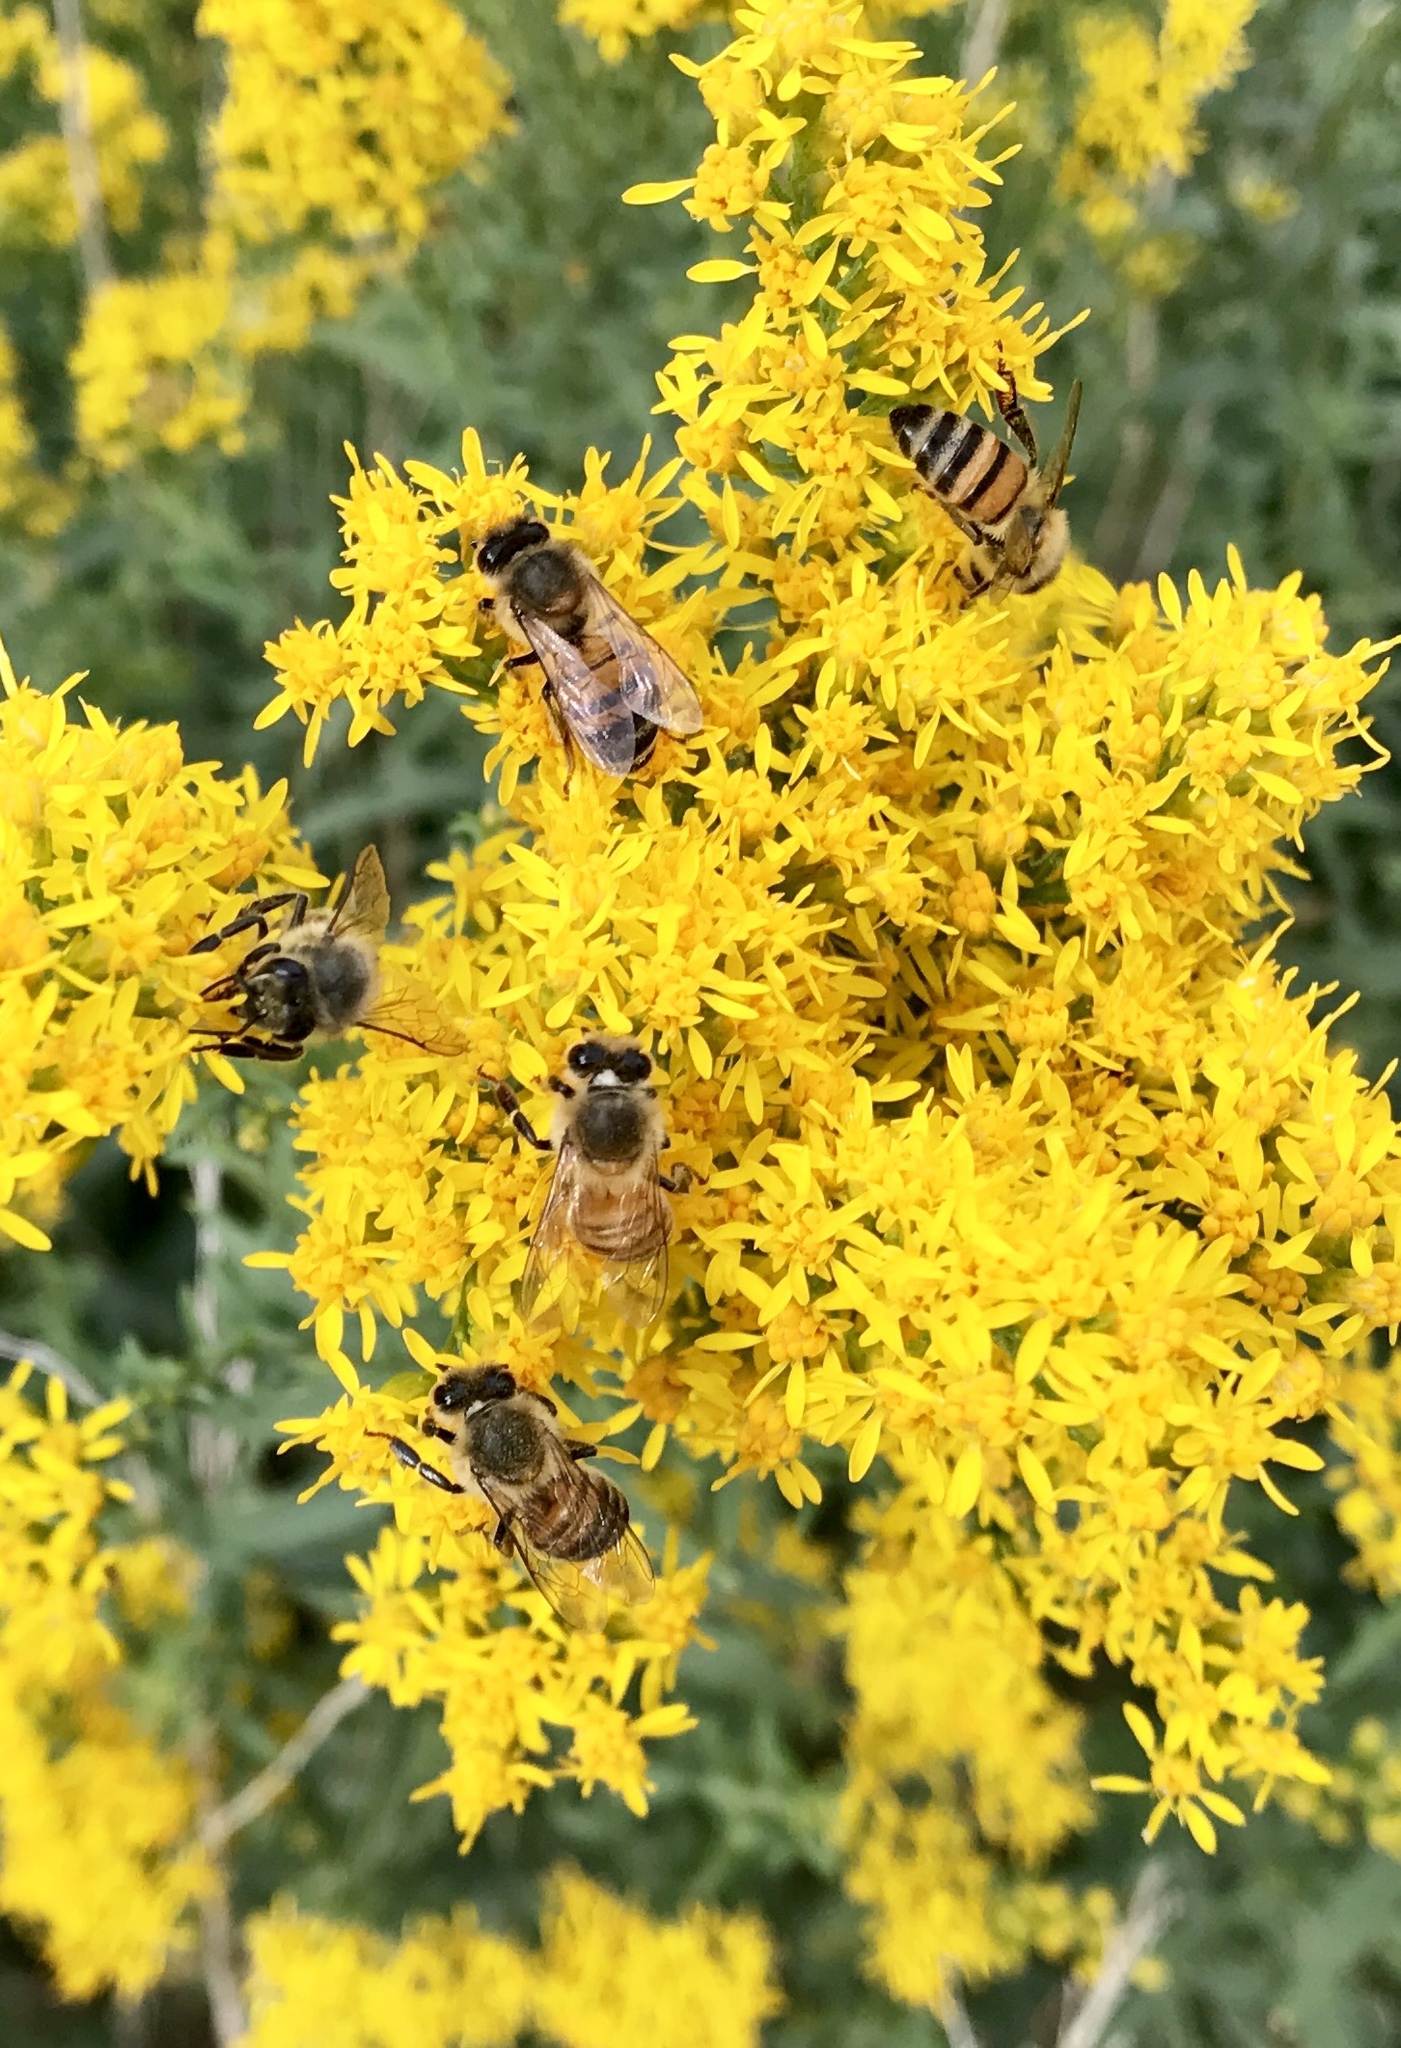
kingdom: Animalia
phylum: Arthropoda
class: Insecta
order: Hymenoptera
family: Apidae
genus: Apis
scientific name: Apis mellifera
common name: Honey bee
